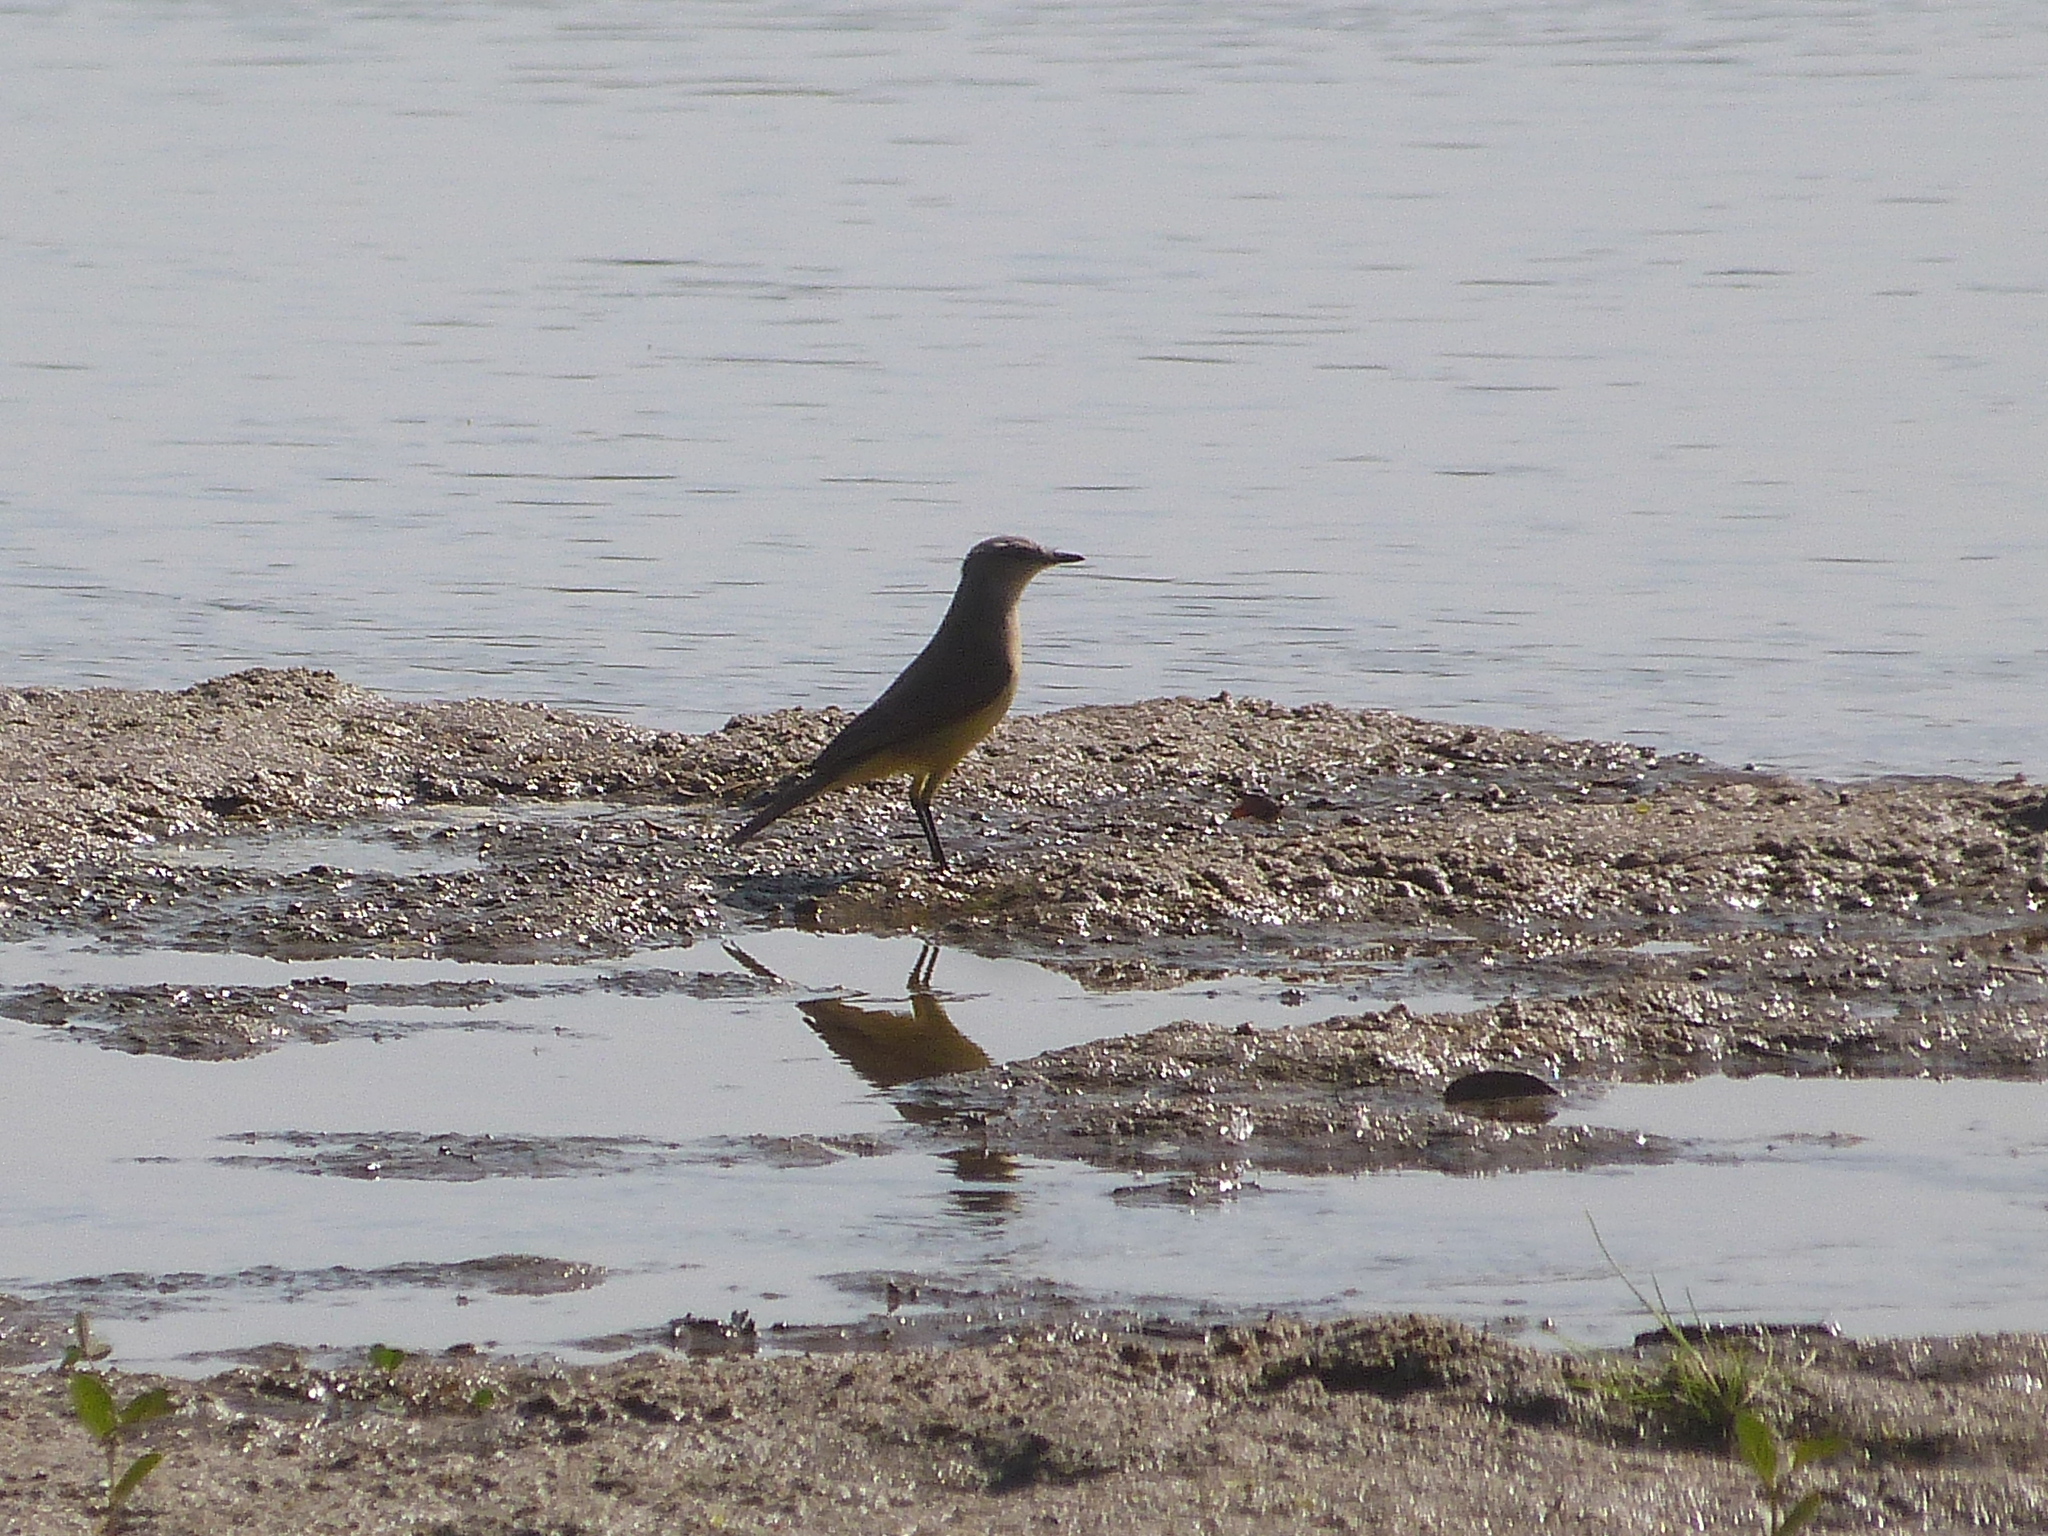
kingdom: Animalia
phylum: Chordata
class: Aves
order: Passeriformes
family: Tyrannidae
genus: Machetornis
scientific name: Machetornis rixosa
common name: Cattle tyrant
